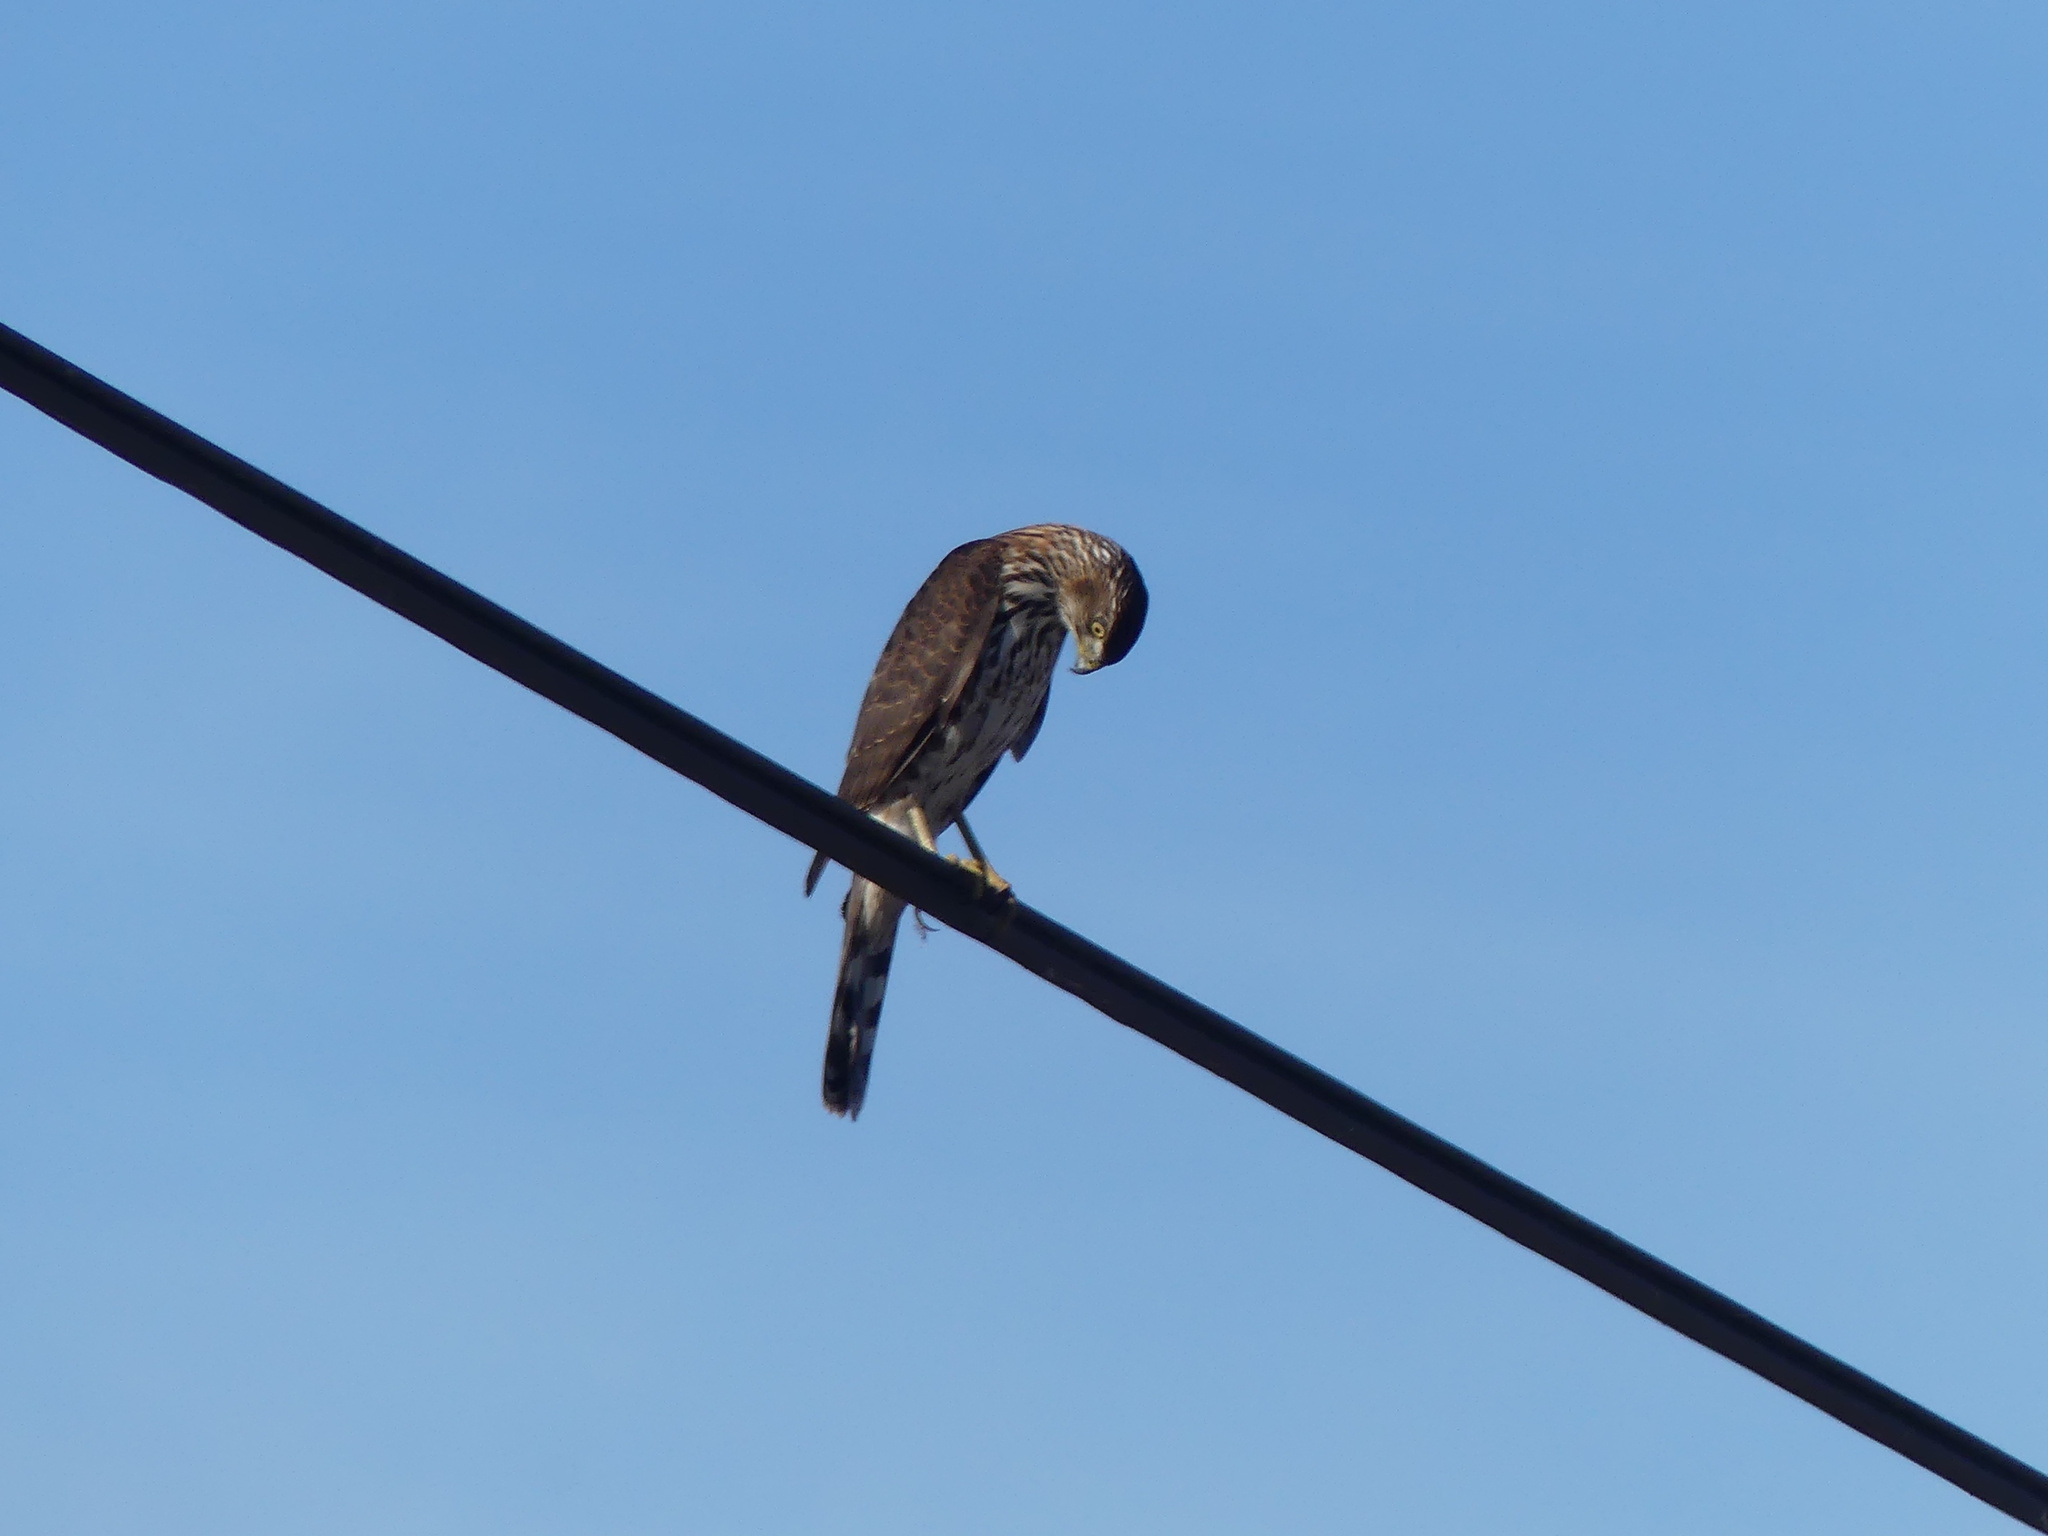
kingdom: Animalia
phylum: Chordata
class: Aves
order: Accipitriformes
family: Accipitridae
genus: Accipiter
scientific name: Accipiter cooperii
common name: Cooper's hawk
